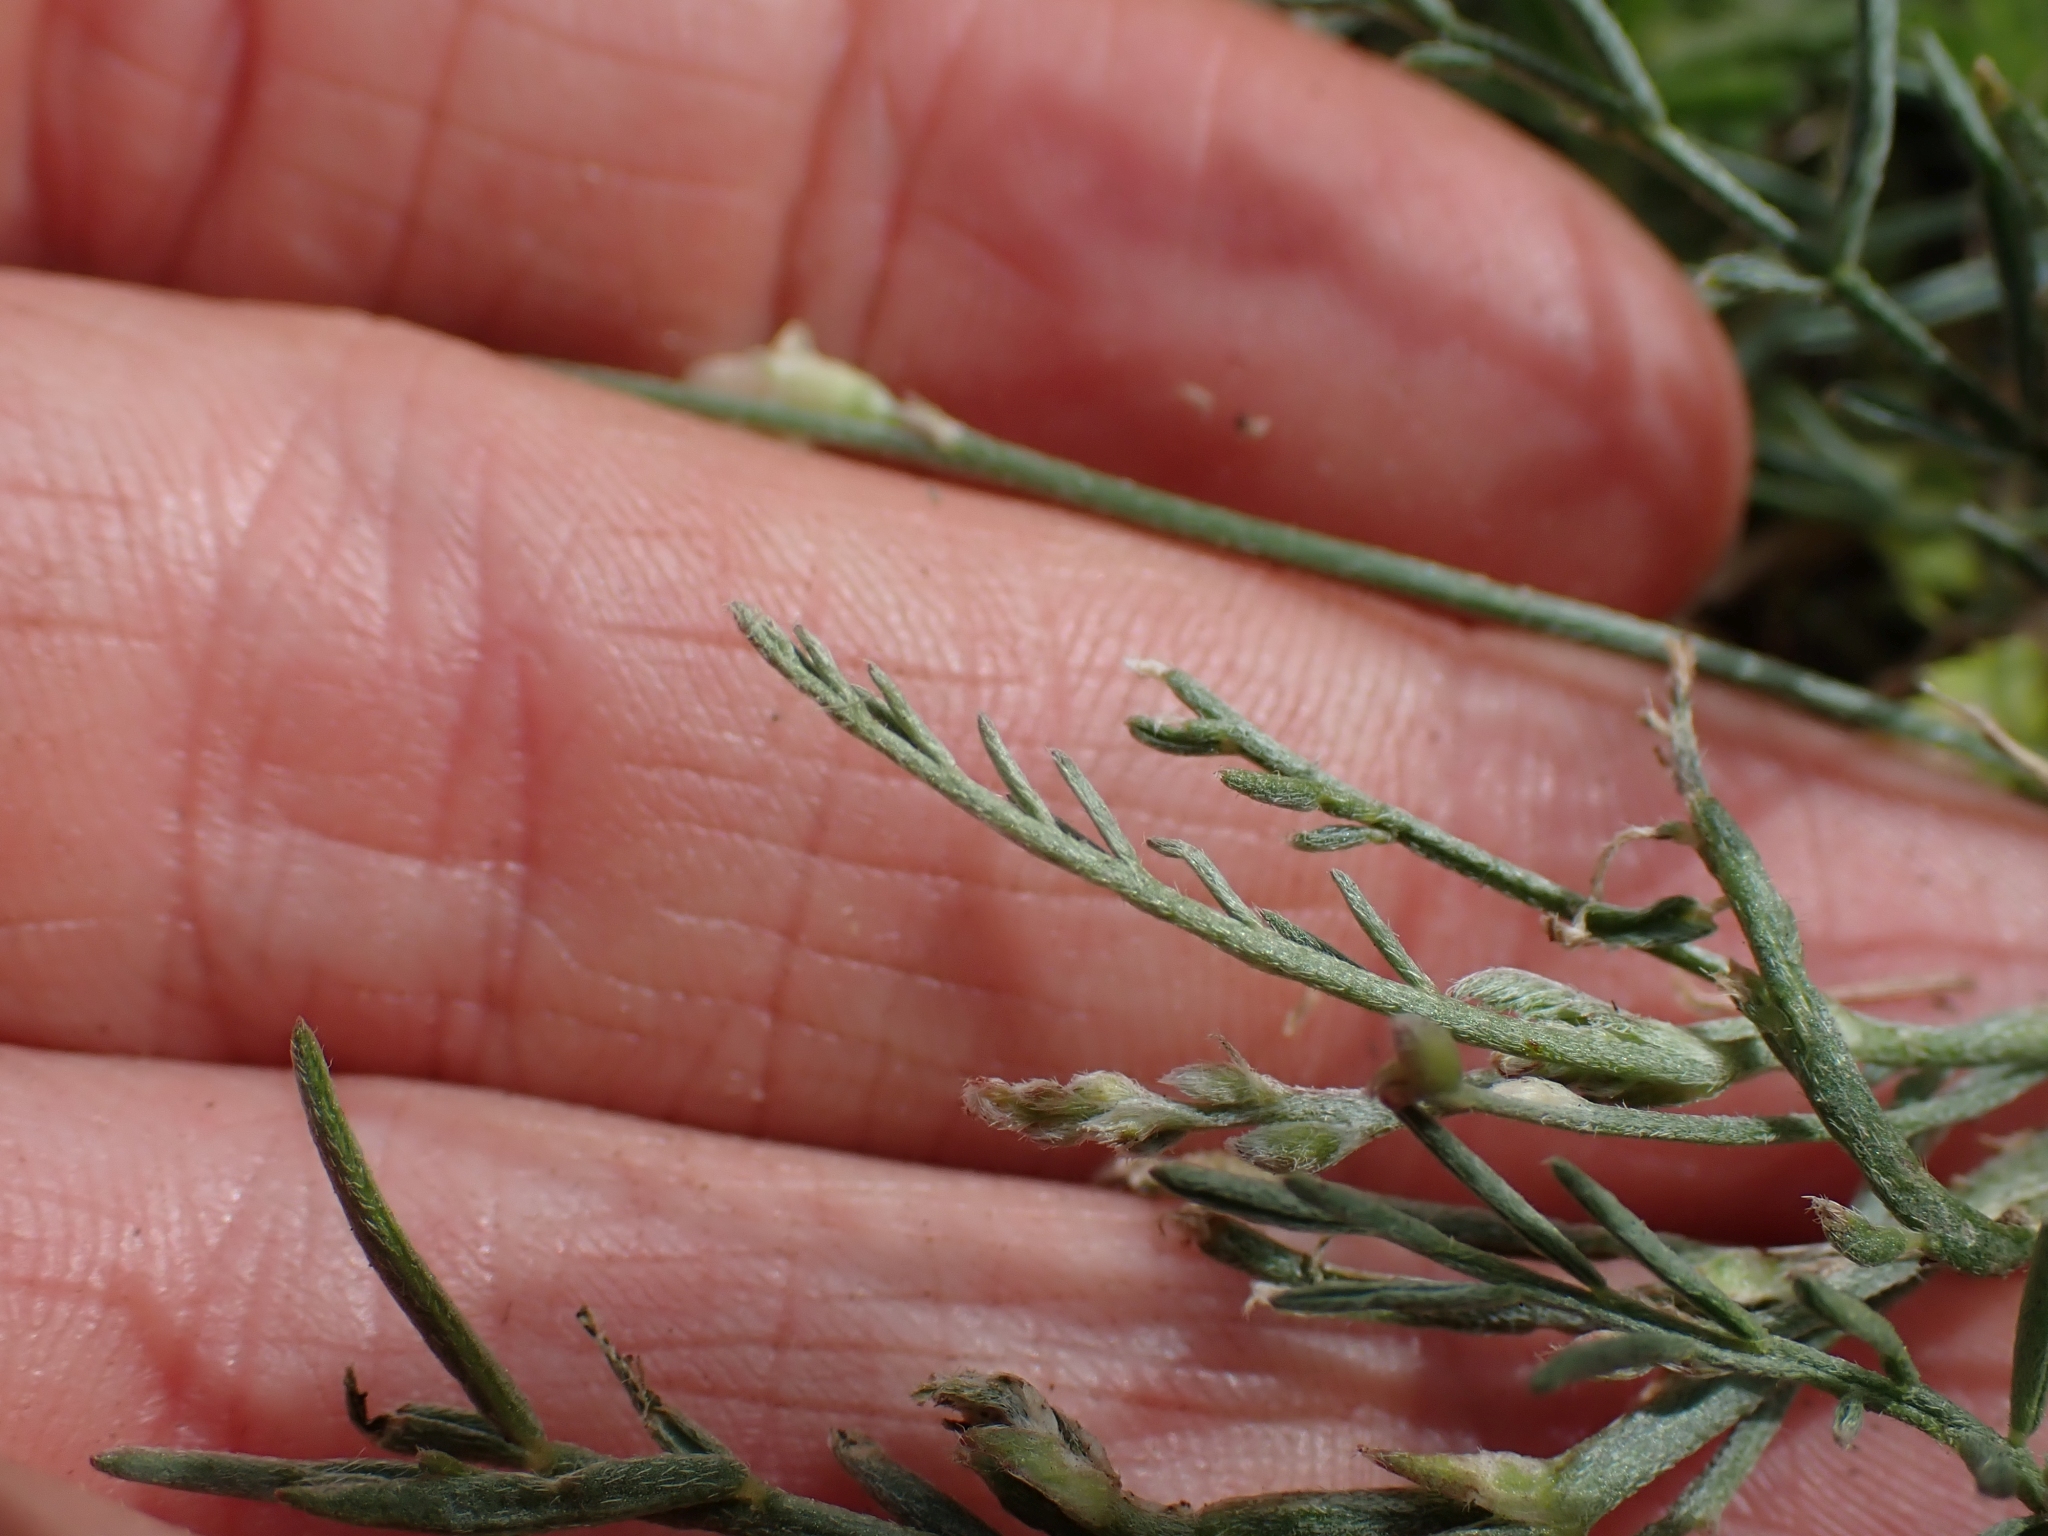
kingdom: Plantae
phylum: Tracheophyta
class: Magnoliopsida
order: Fabales
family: Fabaceae
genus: Astragalus
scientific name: Astragalus miser
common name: Timber milkvetch
